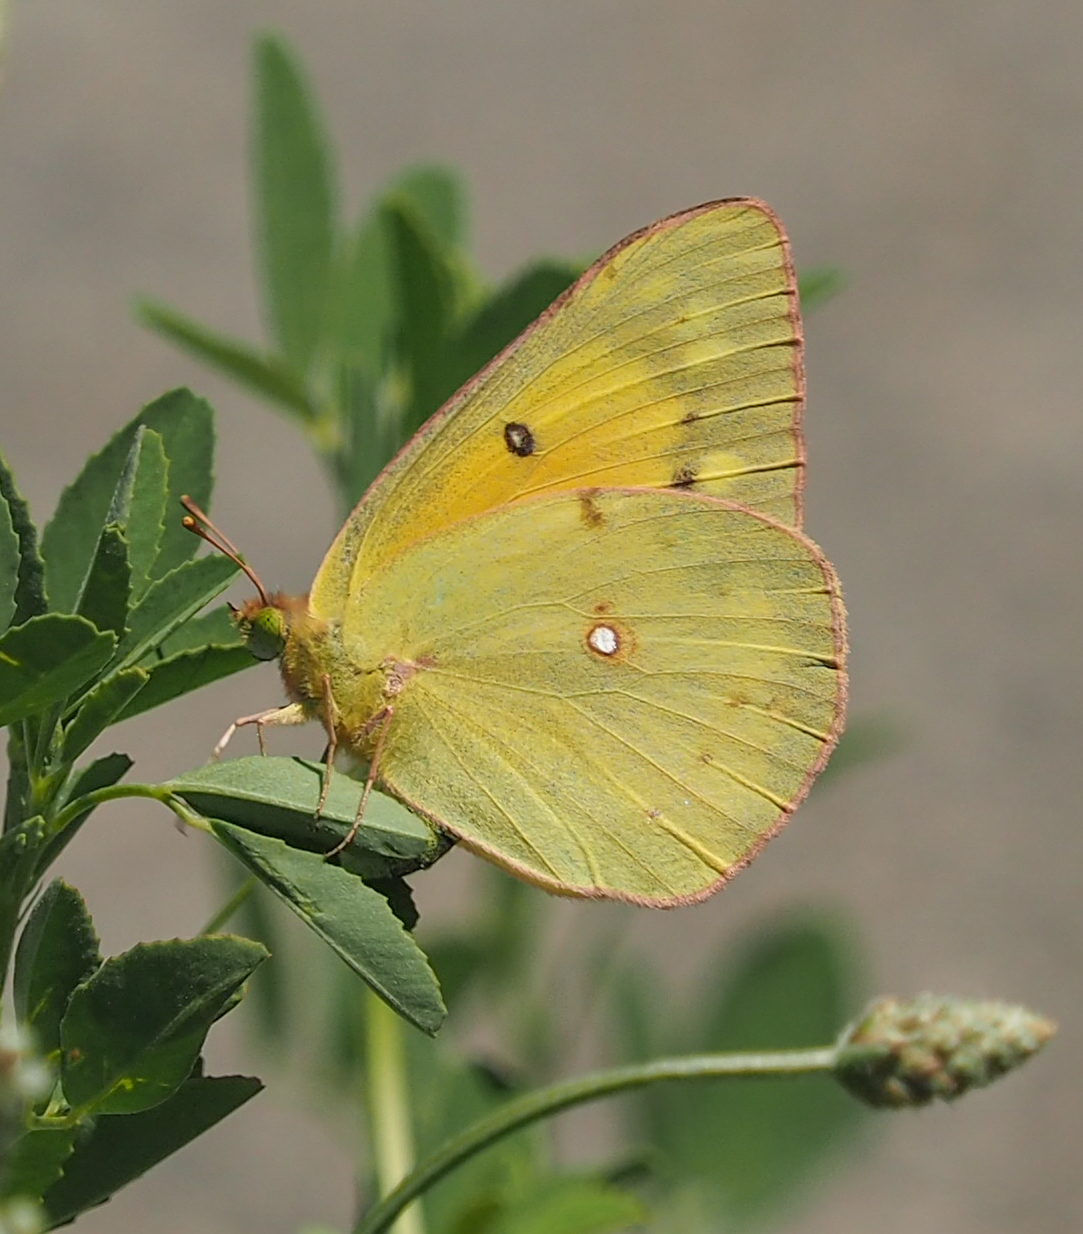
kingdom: Animalia
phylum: Arthropoda
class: Insecta
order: Lepidoptera
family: Pieridae
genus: Colias
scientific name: Colias eurytheme
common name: Alfalfa butterfly
